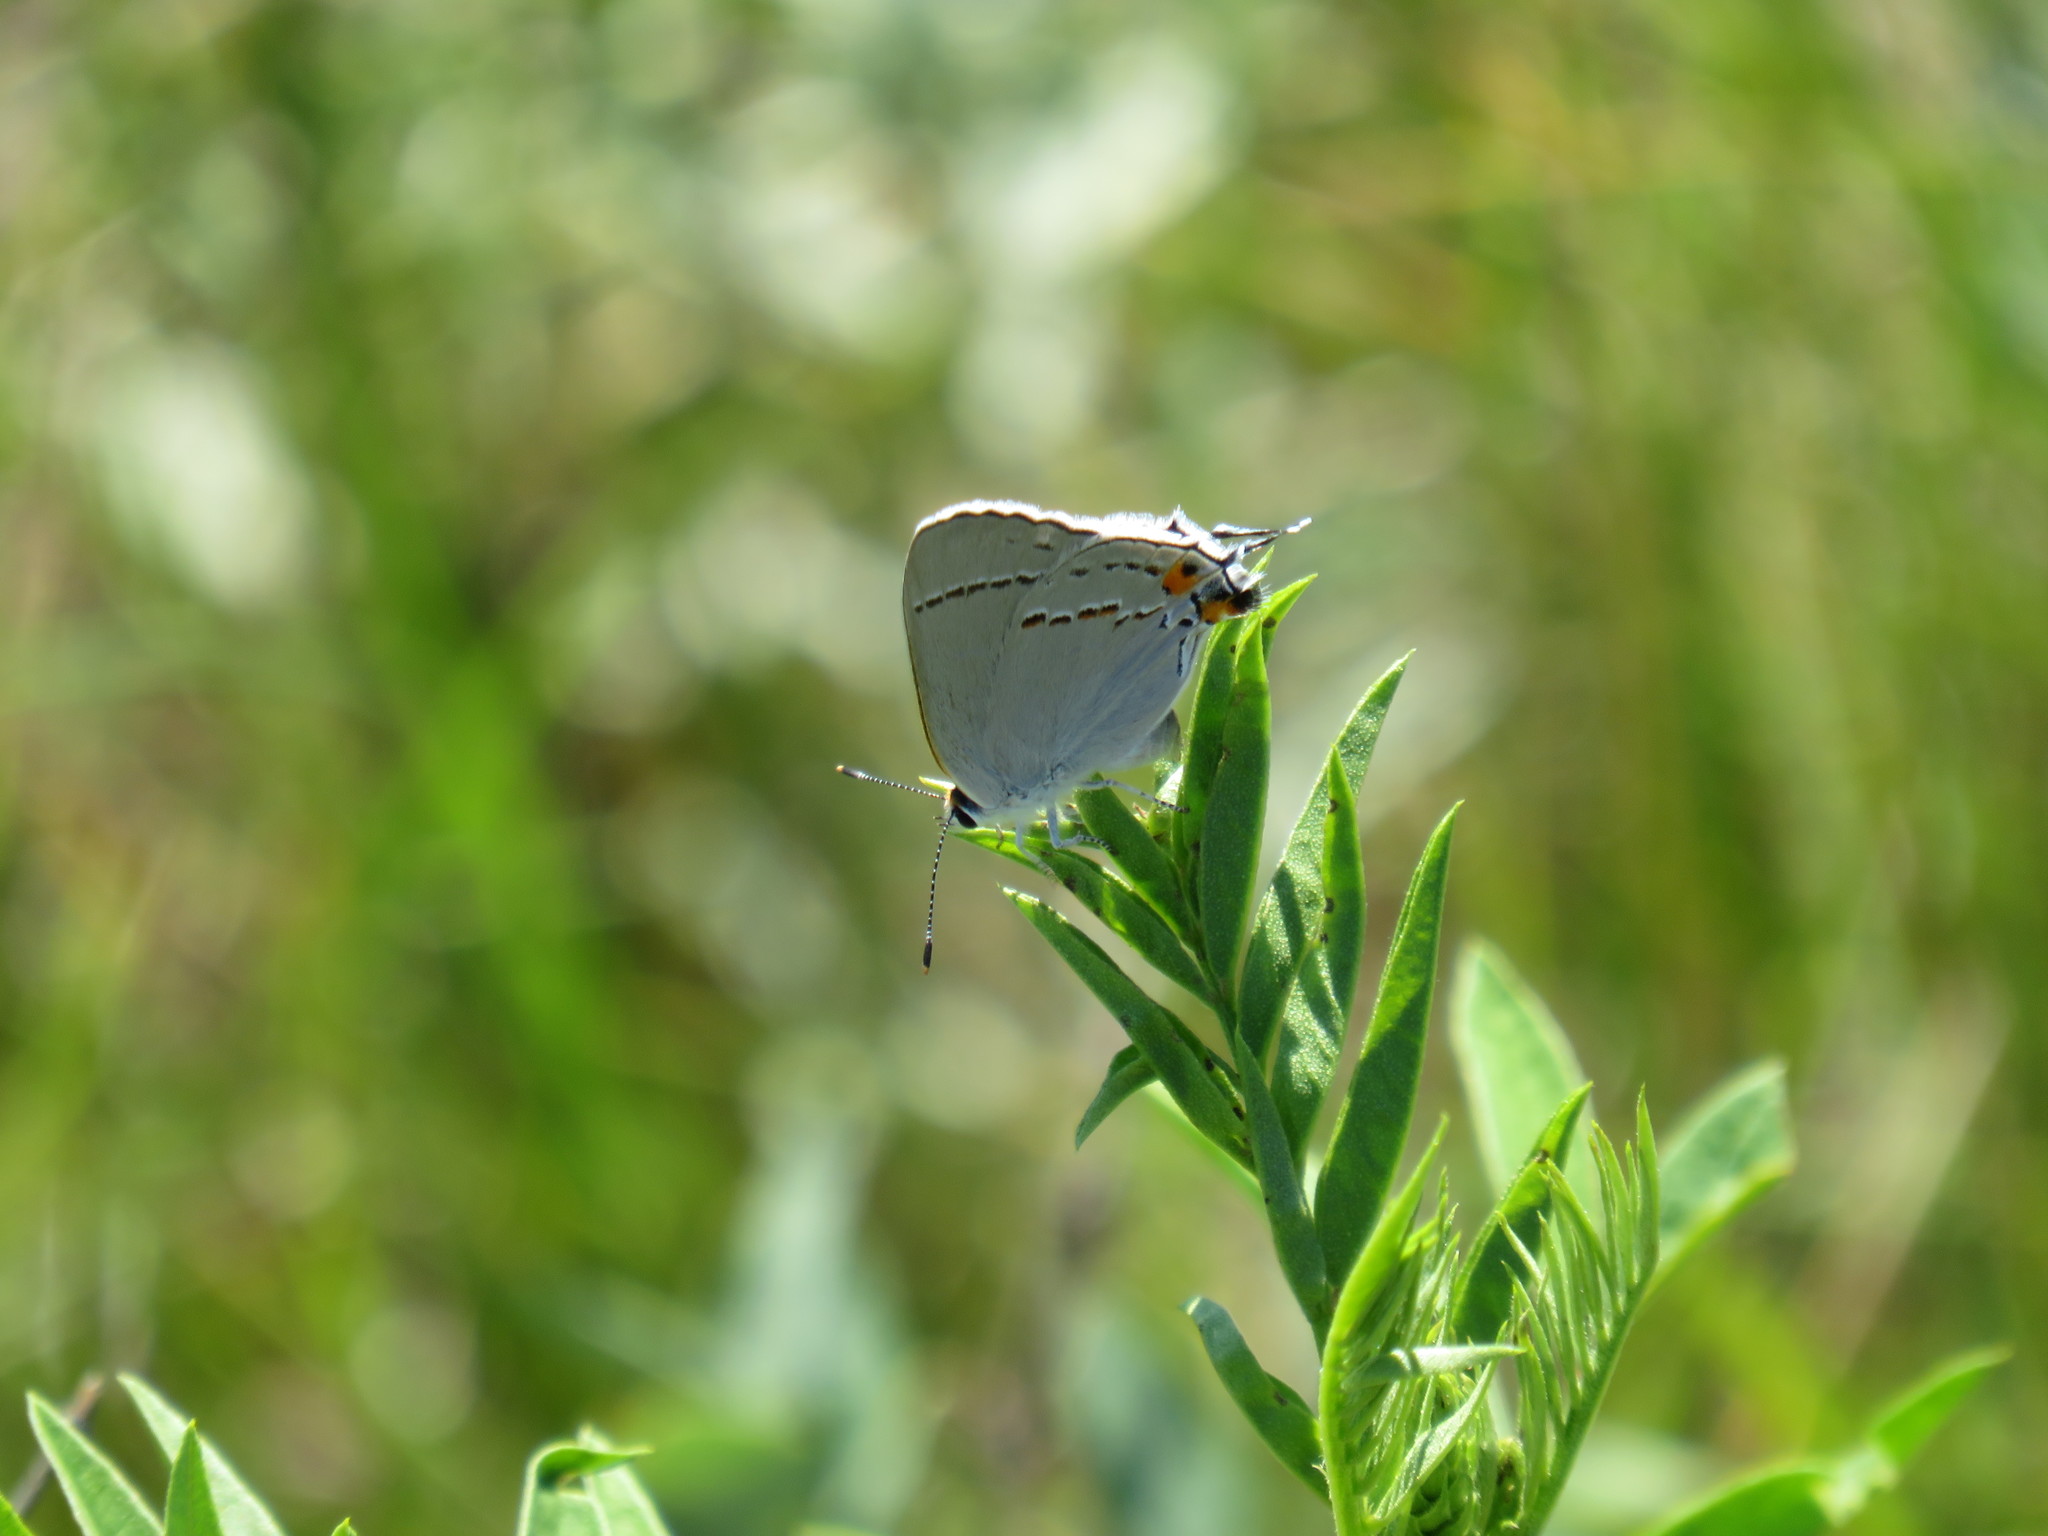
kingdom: Animalia
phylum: Arthropoda
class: Insecta
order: Lepidoptera
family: Lycaenidae
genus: Strymon
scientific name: Strymon melinus
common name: Gray hairstreak
